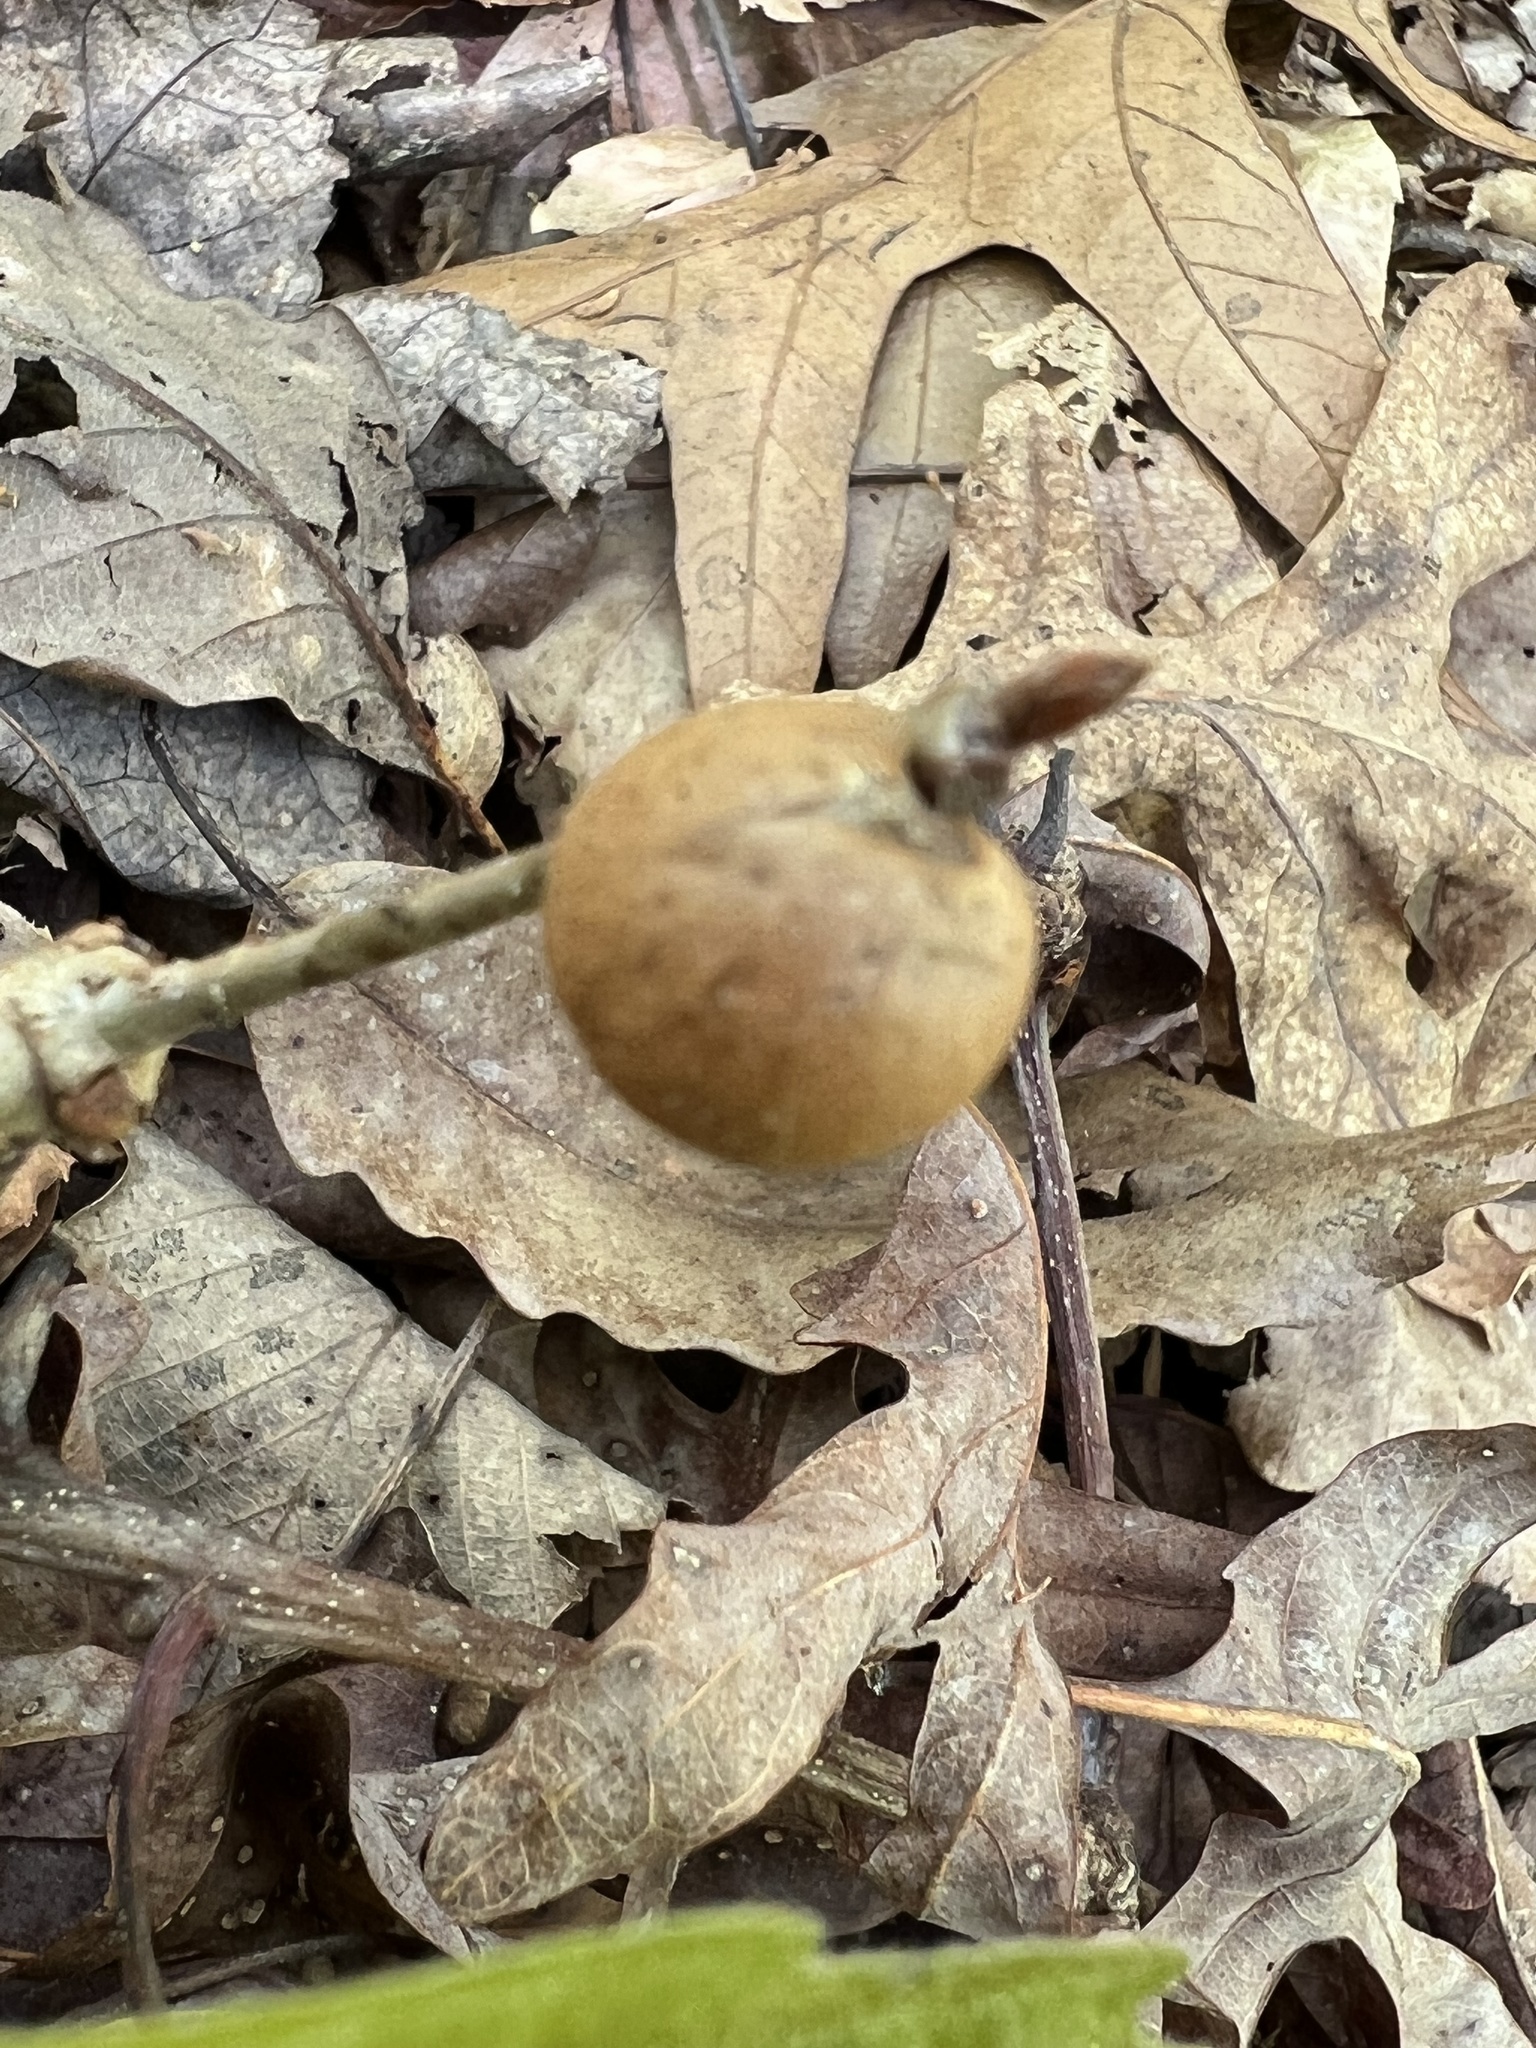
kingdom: Animalia
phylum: Arthropoda
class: Insecta
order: Hymenoptera
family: Cynipidae
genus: Disholcaspis
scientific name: Disholcaspis quercusglobulus
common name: Round bullet gall wasp
